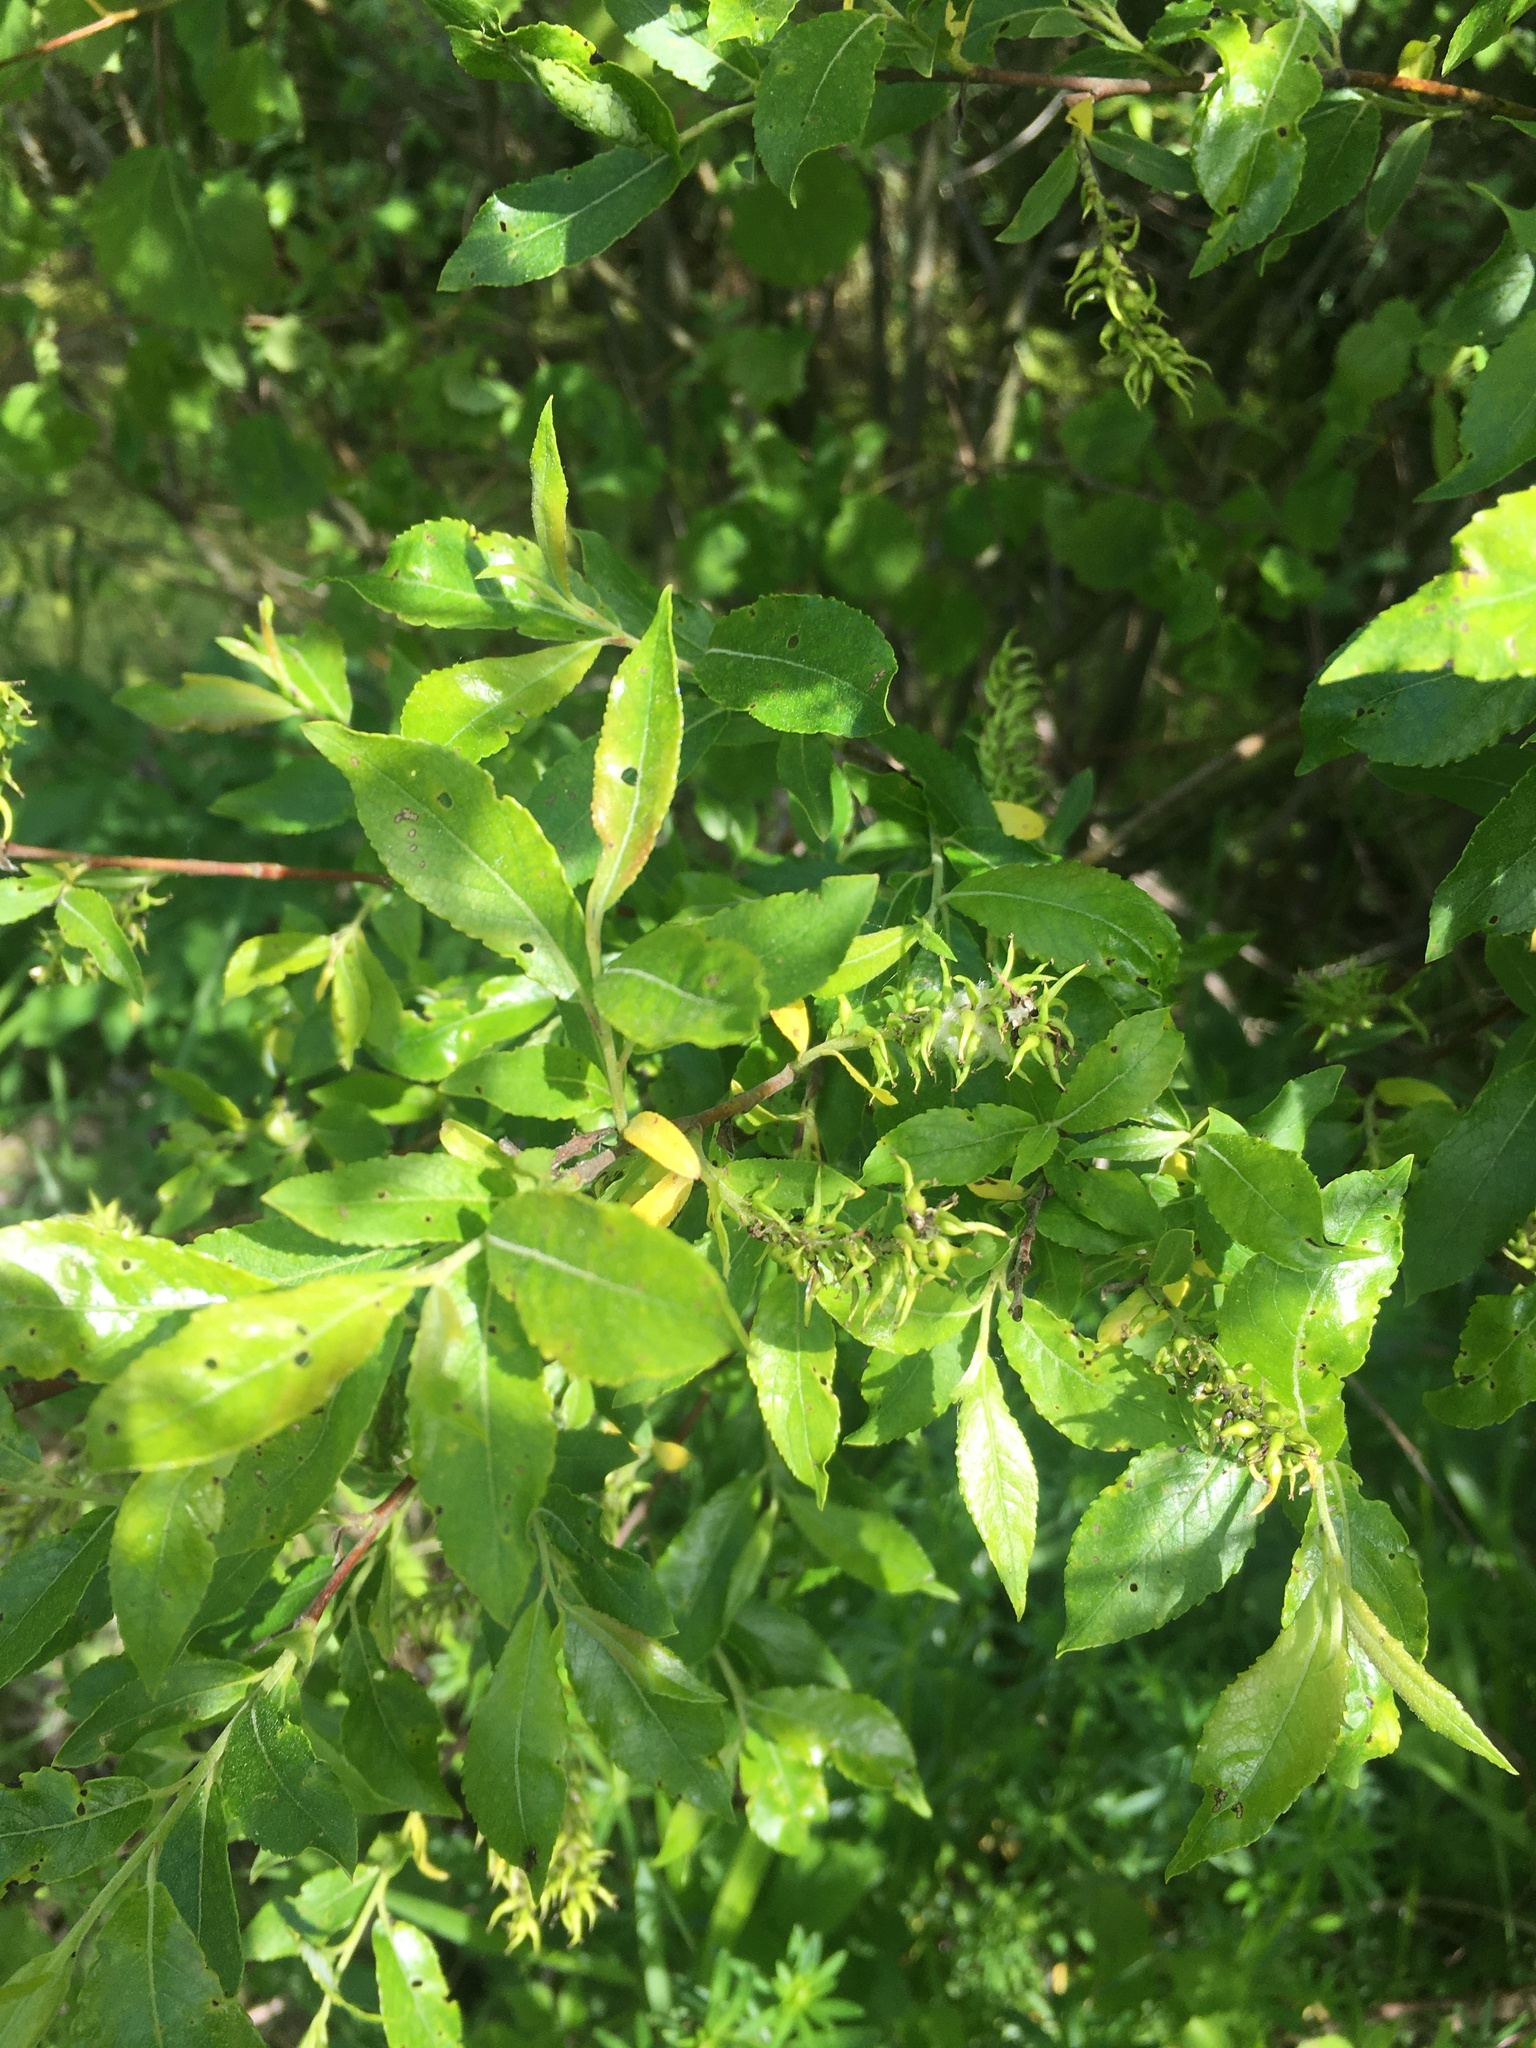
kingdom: Plantae
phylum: Tracheophyta
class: Magnoliopsida
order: Malpighiales
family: Salicaceae
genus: Salix
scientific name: Salix myrsinifolia
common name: Dark-leaved willow
